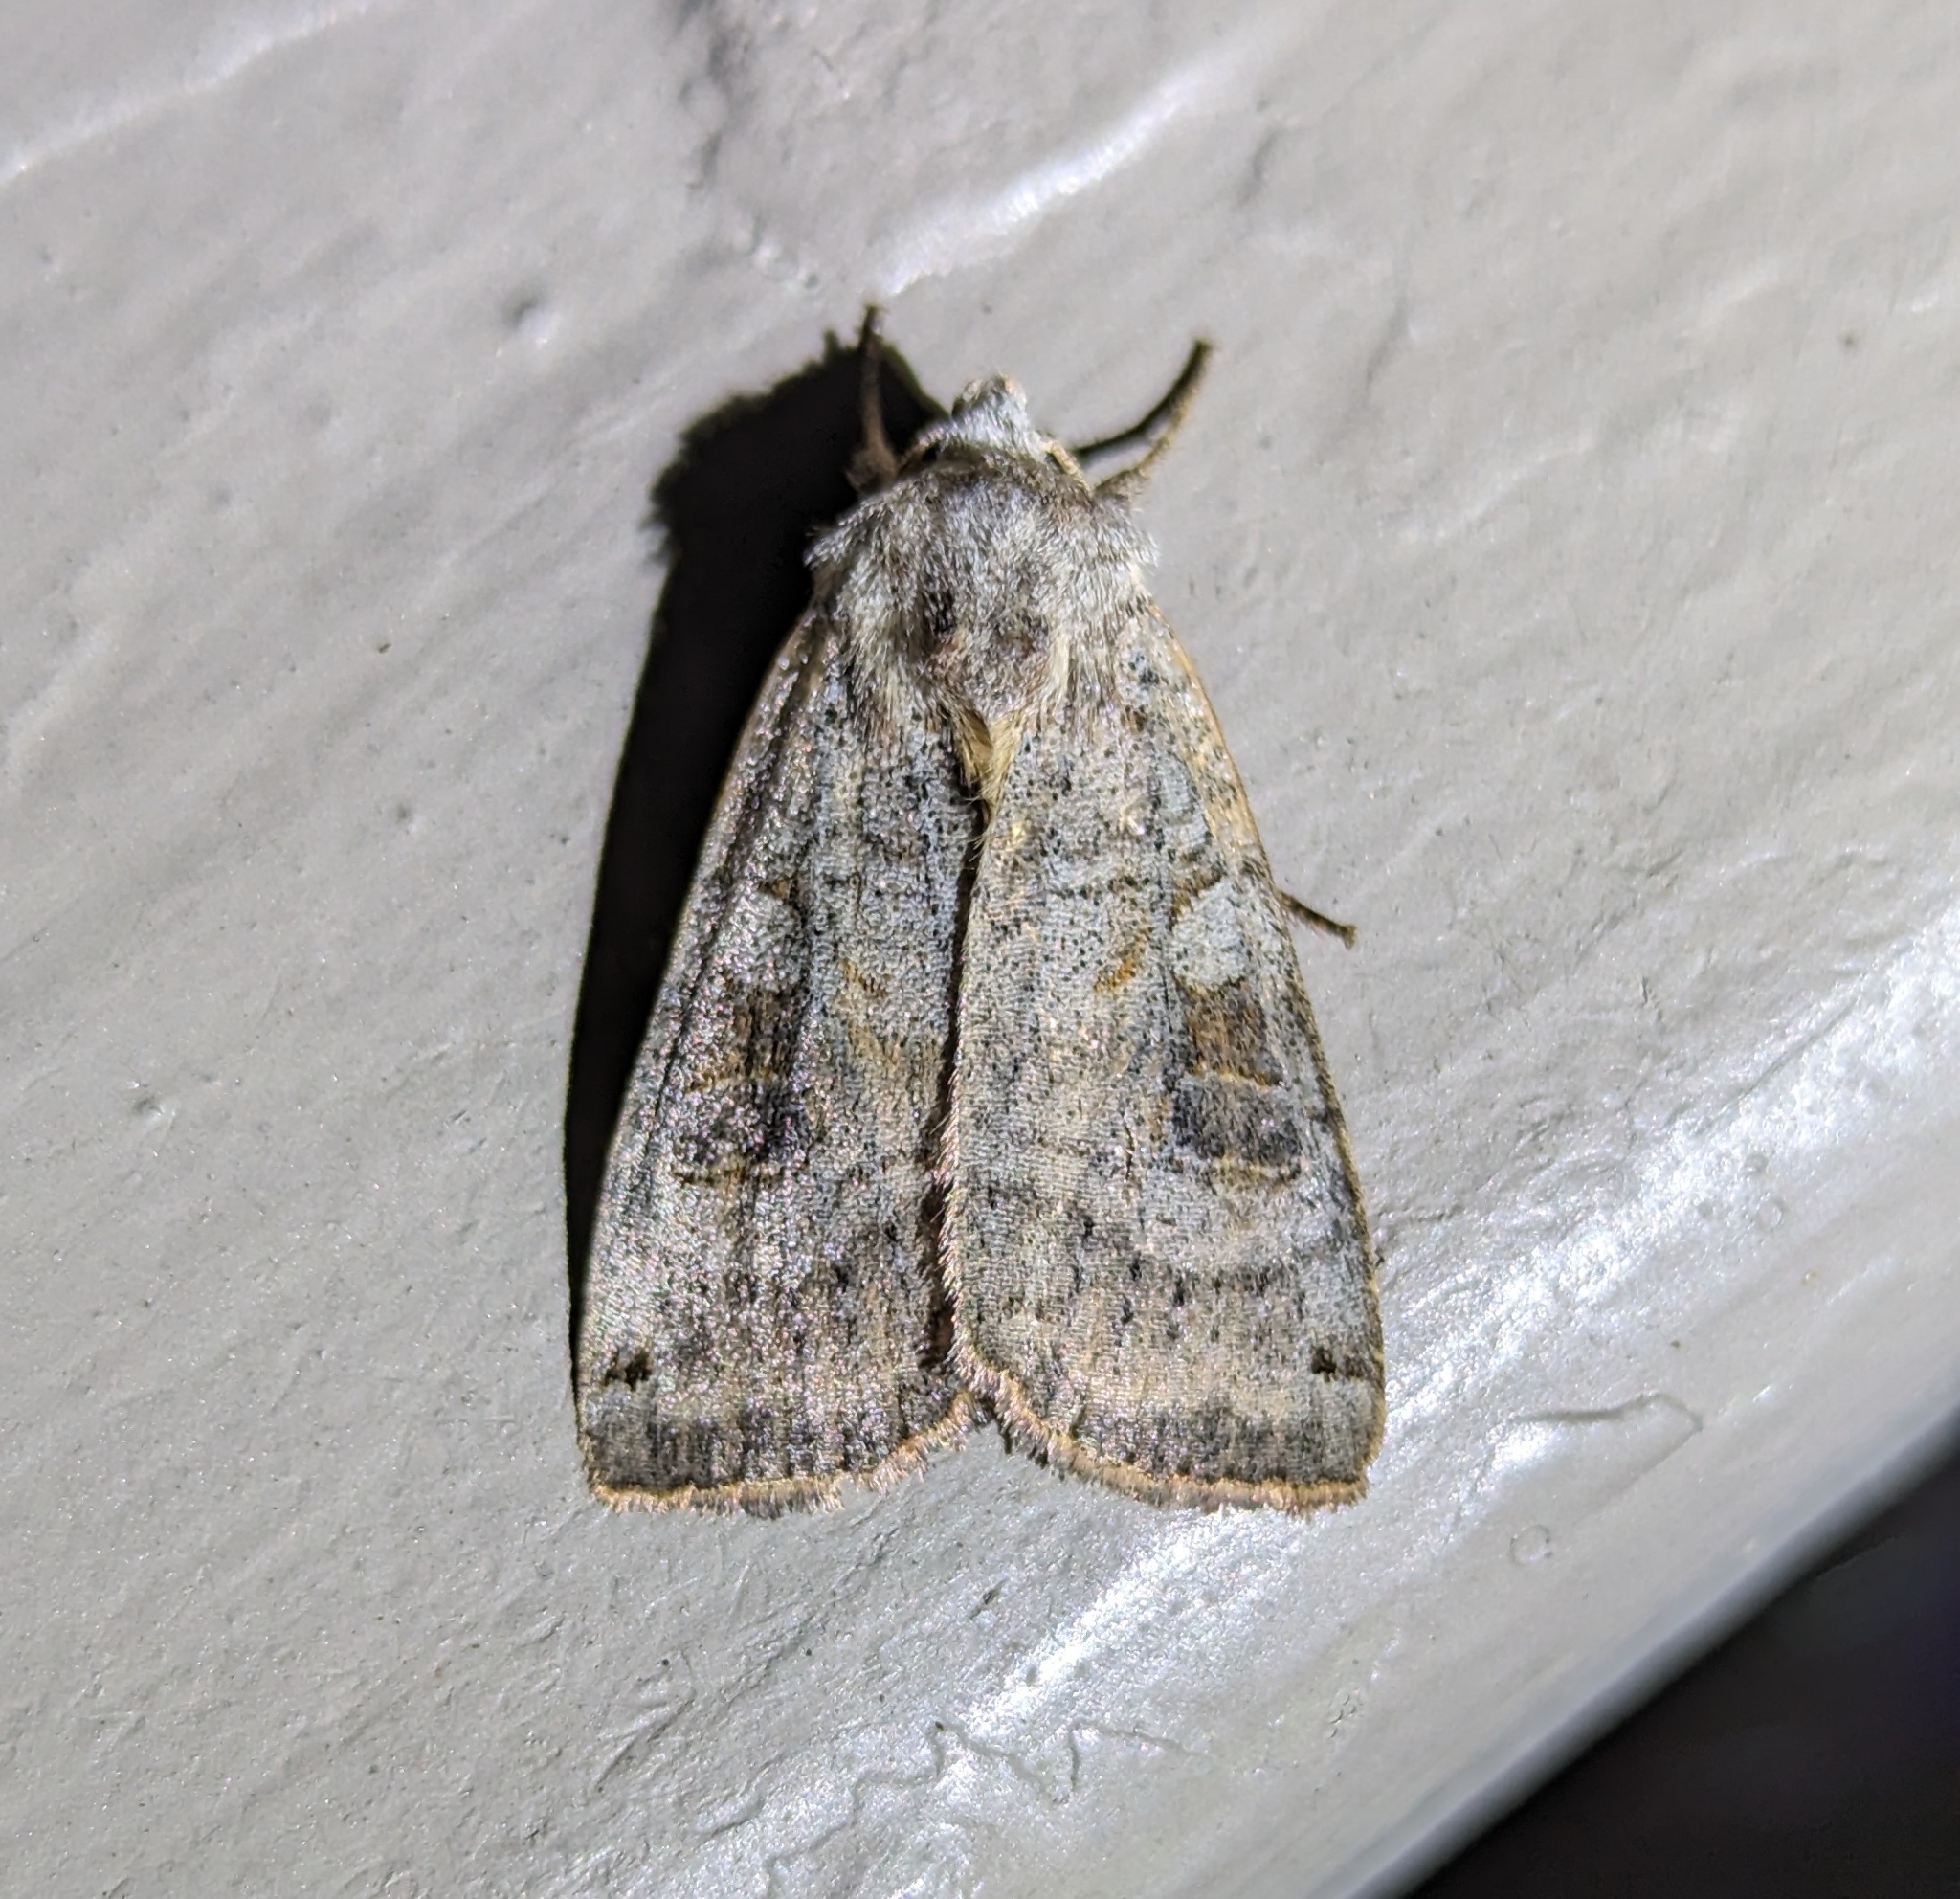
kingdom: Animalia
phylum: Arthropoda
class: Insecta
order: Lepidoptera
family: Noctuidae
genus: Xestia
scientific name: Xestia smithii
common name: Smith's dart
